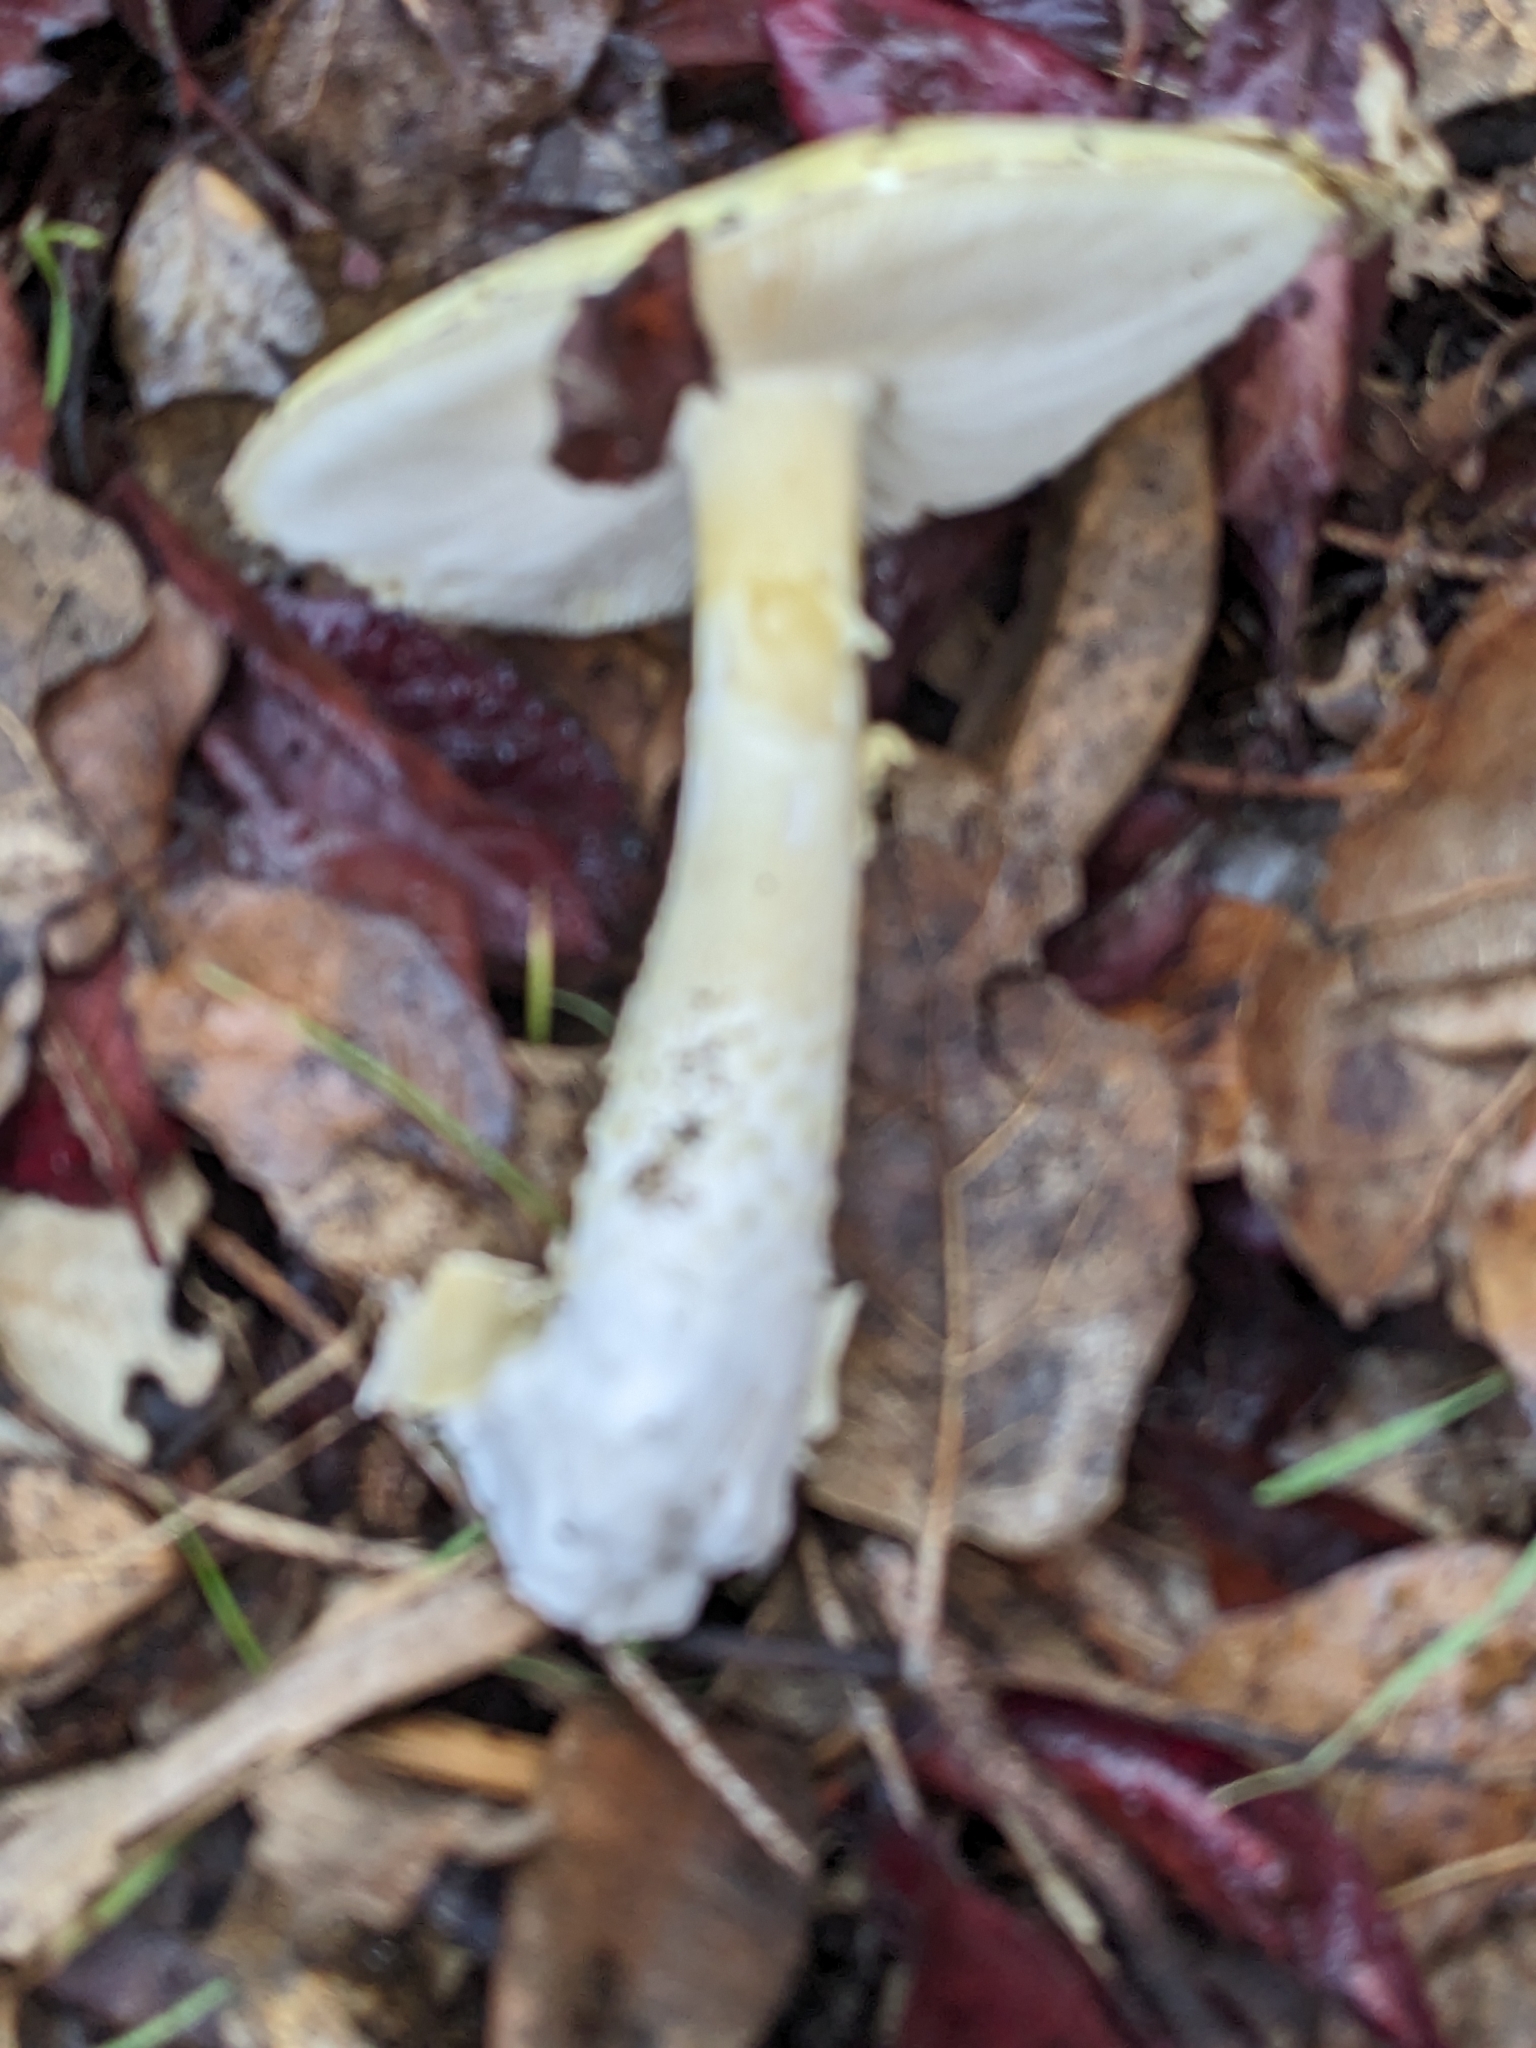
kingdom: Fungi
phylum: Basidiomycota
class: Agaricomycetes
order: Agaricales
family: Amanitaceae
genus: Amanita
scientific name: Amanita phalloides
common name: Death cap
